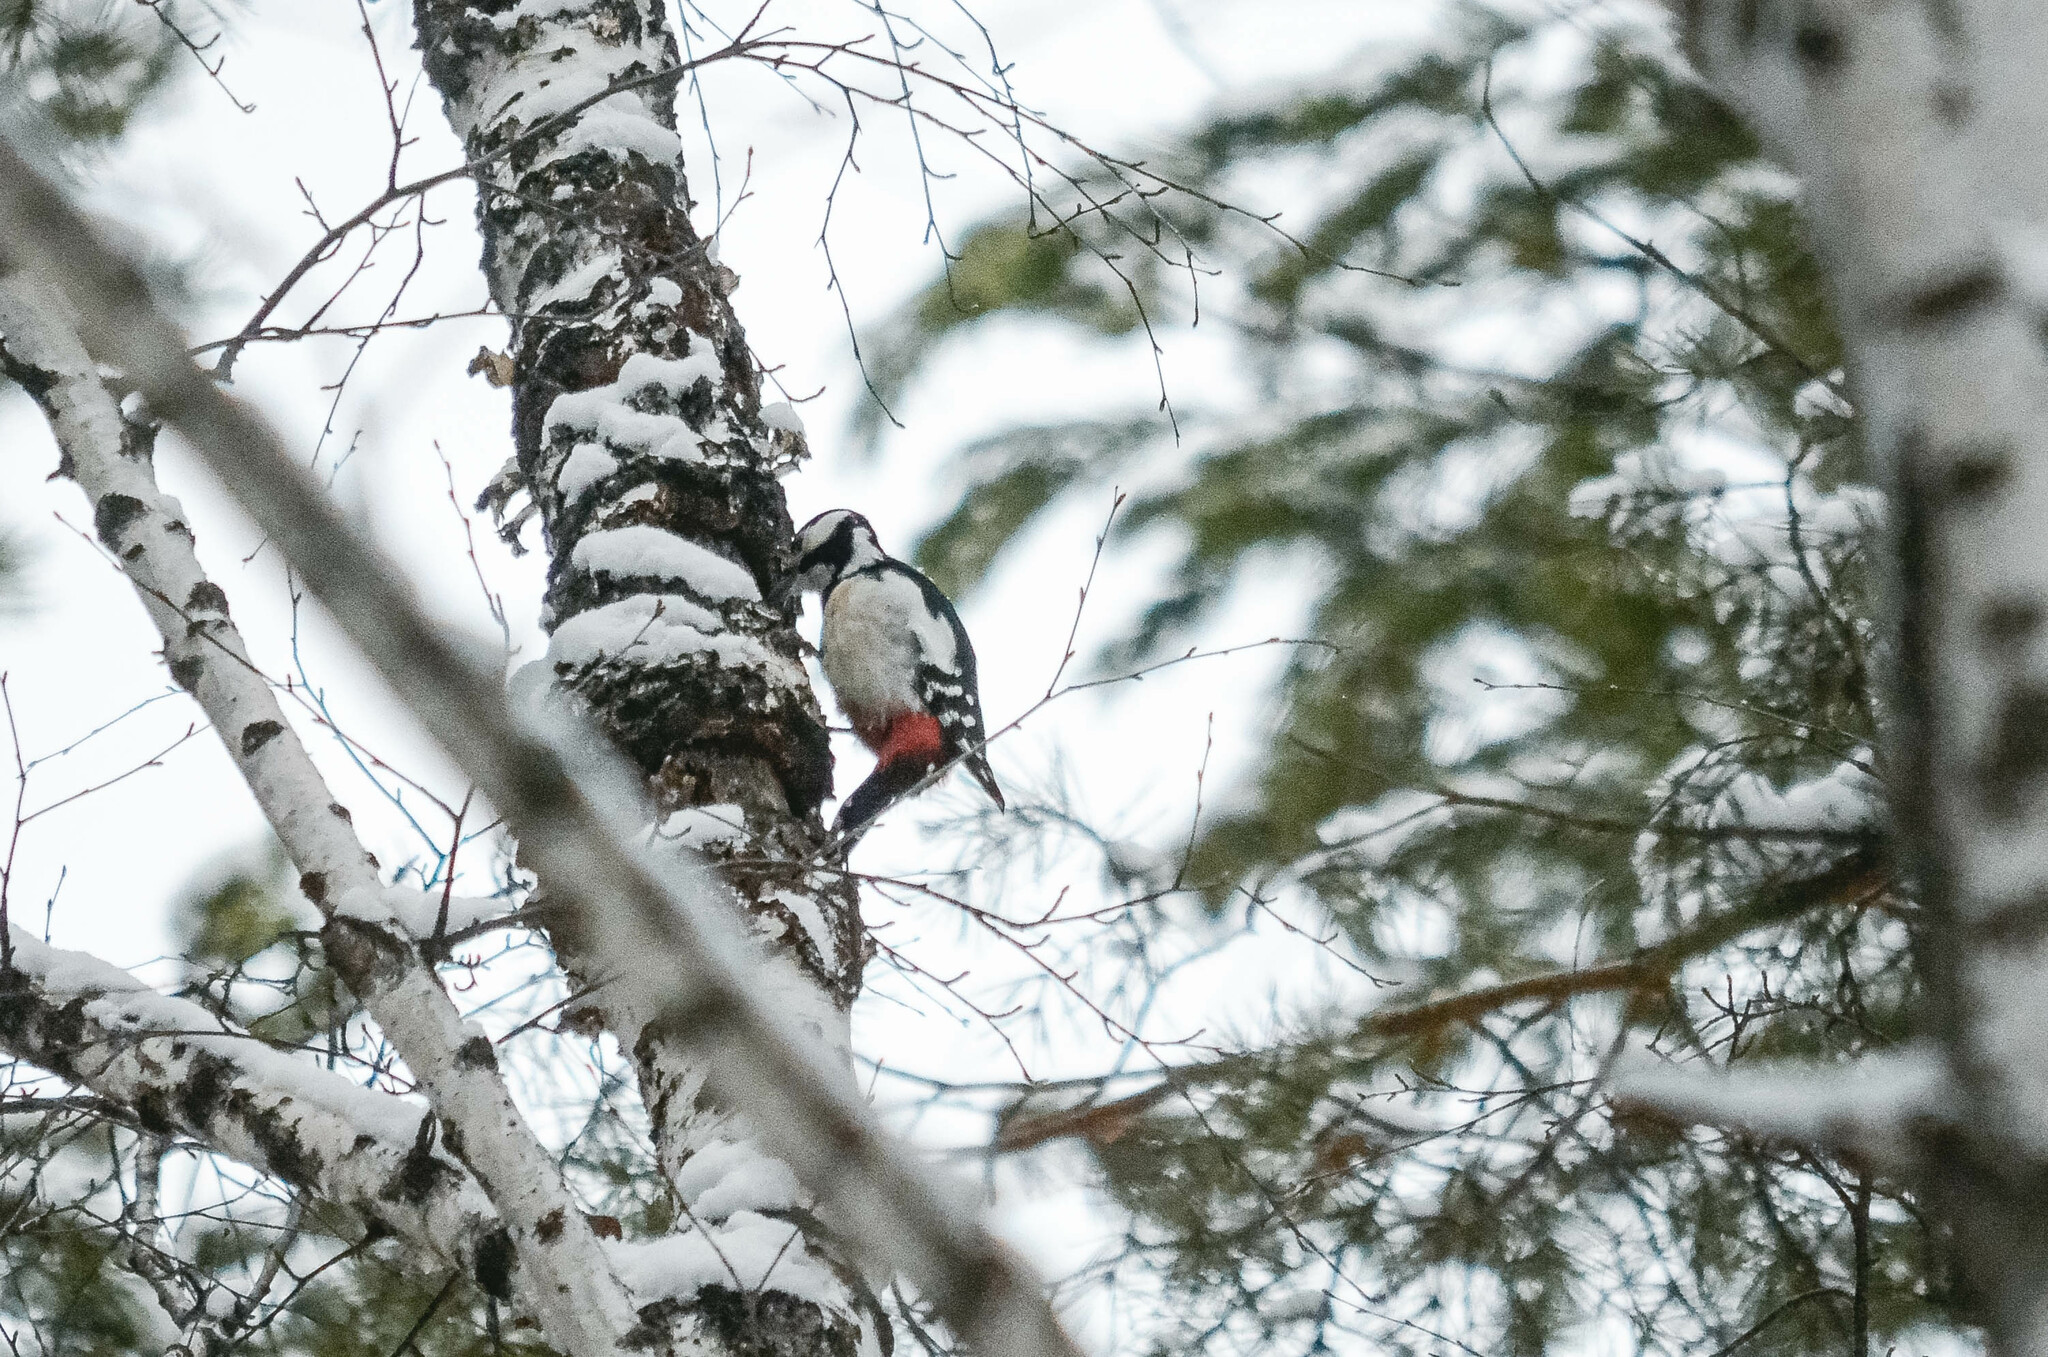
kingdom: Animalia
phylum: Chordata
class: Aves
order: Piciformes
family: Picidae
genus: Dendrocopos
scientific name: Dendrocopos major
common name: Great spotted woodpecker
